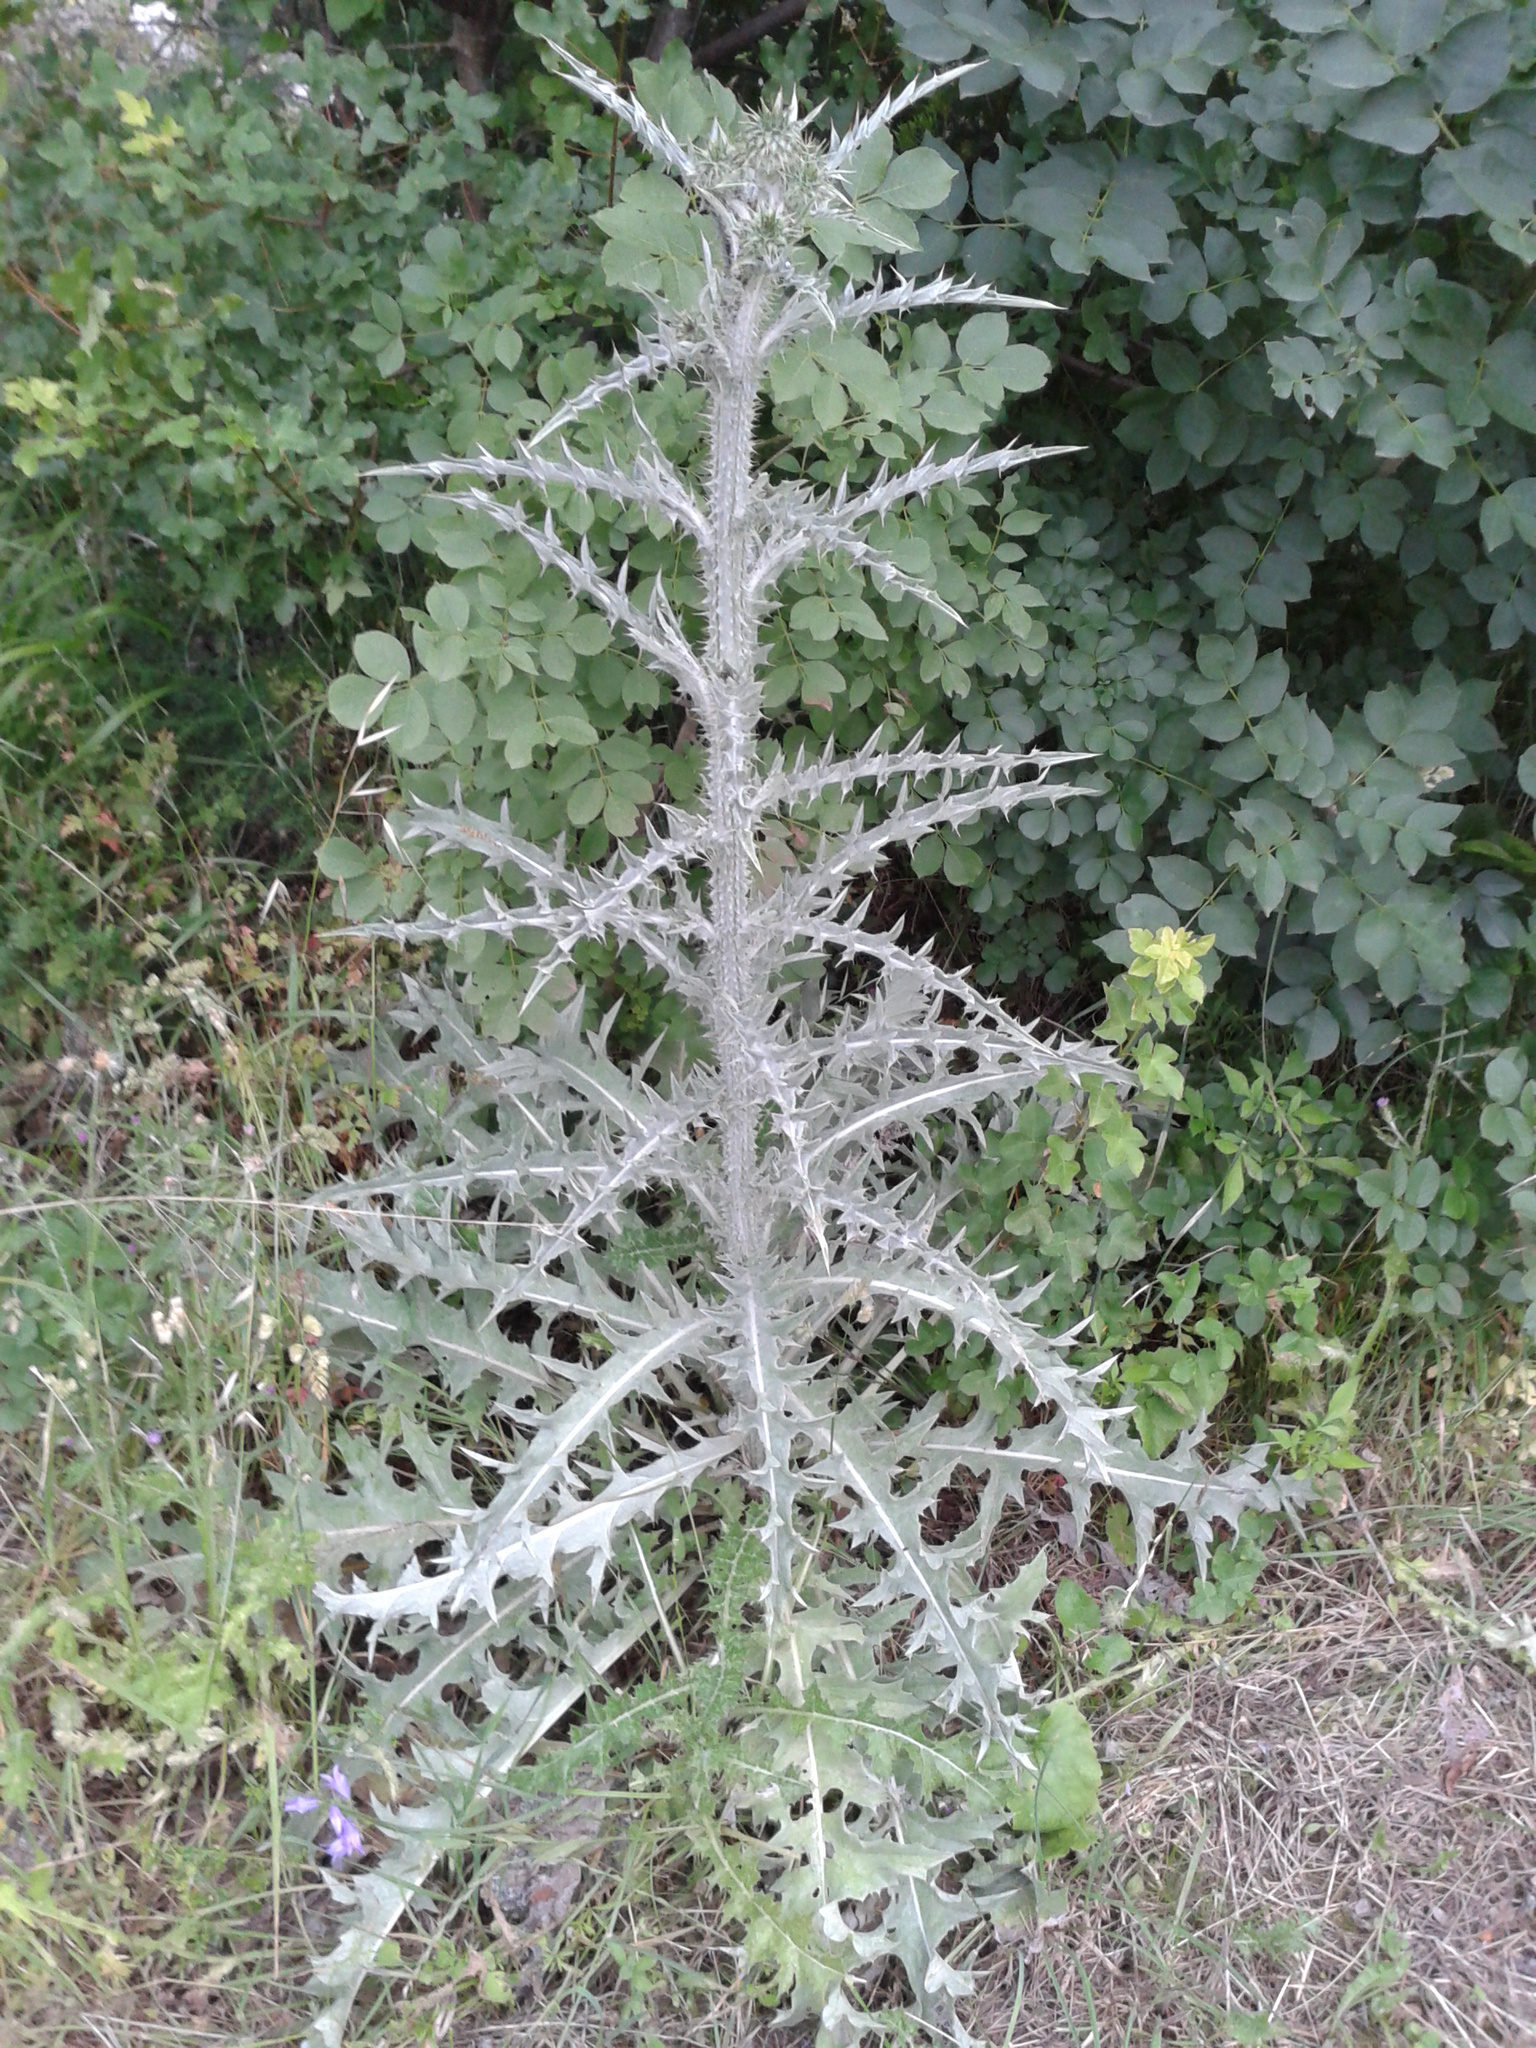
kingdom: Plantae
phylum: Tracheophyta
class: Magnoliopsida
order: Asterales
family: Asteraceae
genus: Onopordum
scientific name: Onopordum illyricum
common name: Illyrian thistle
